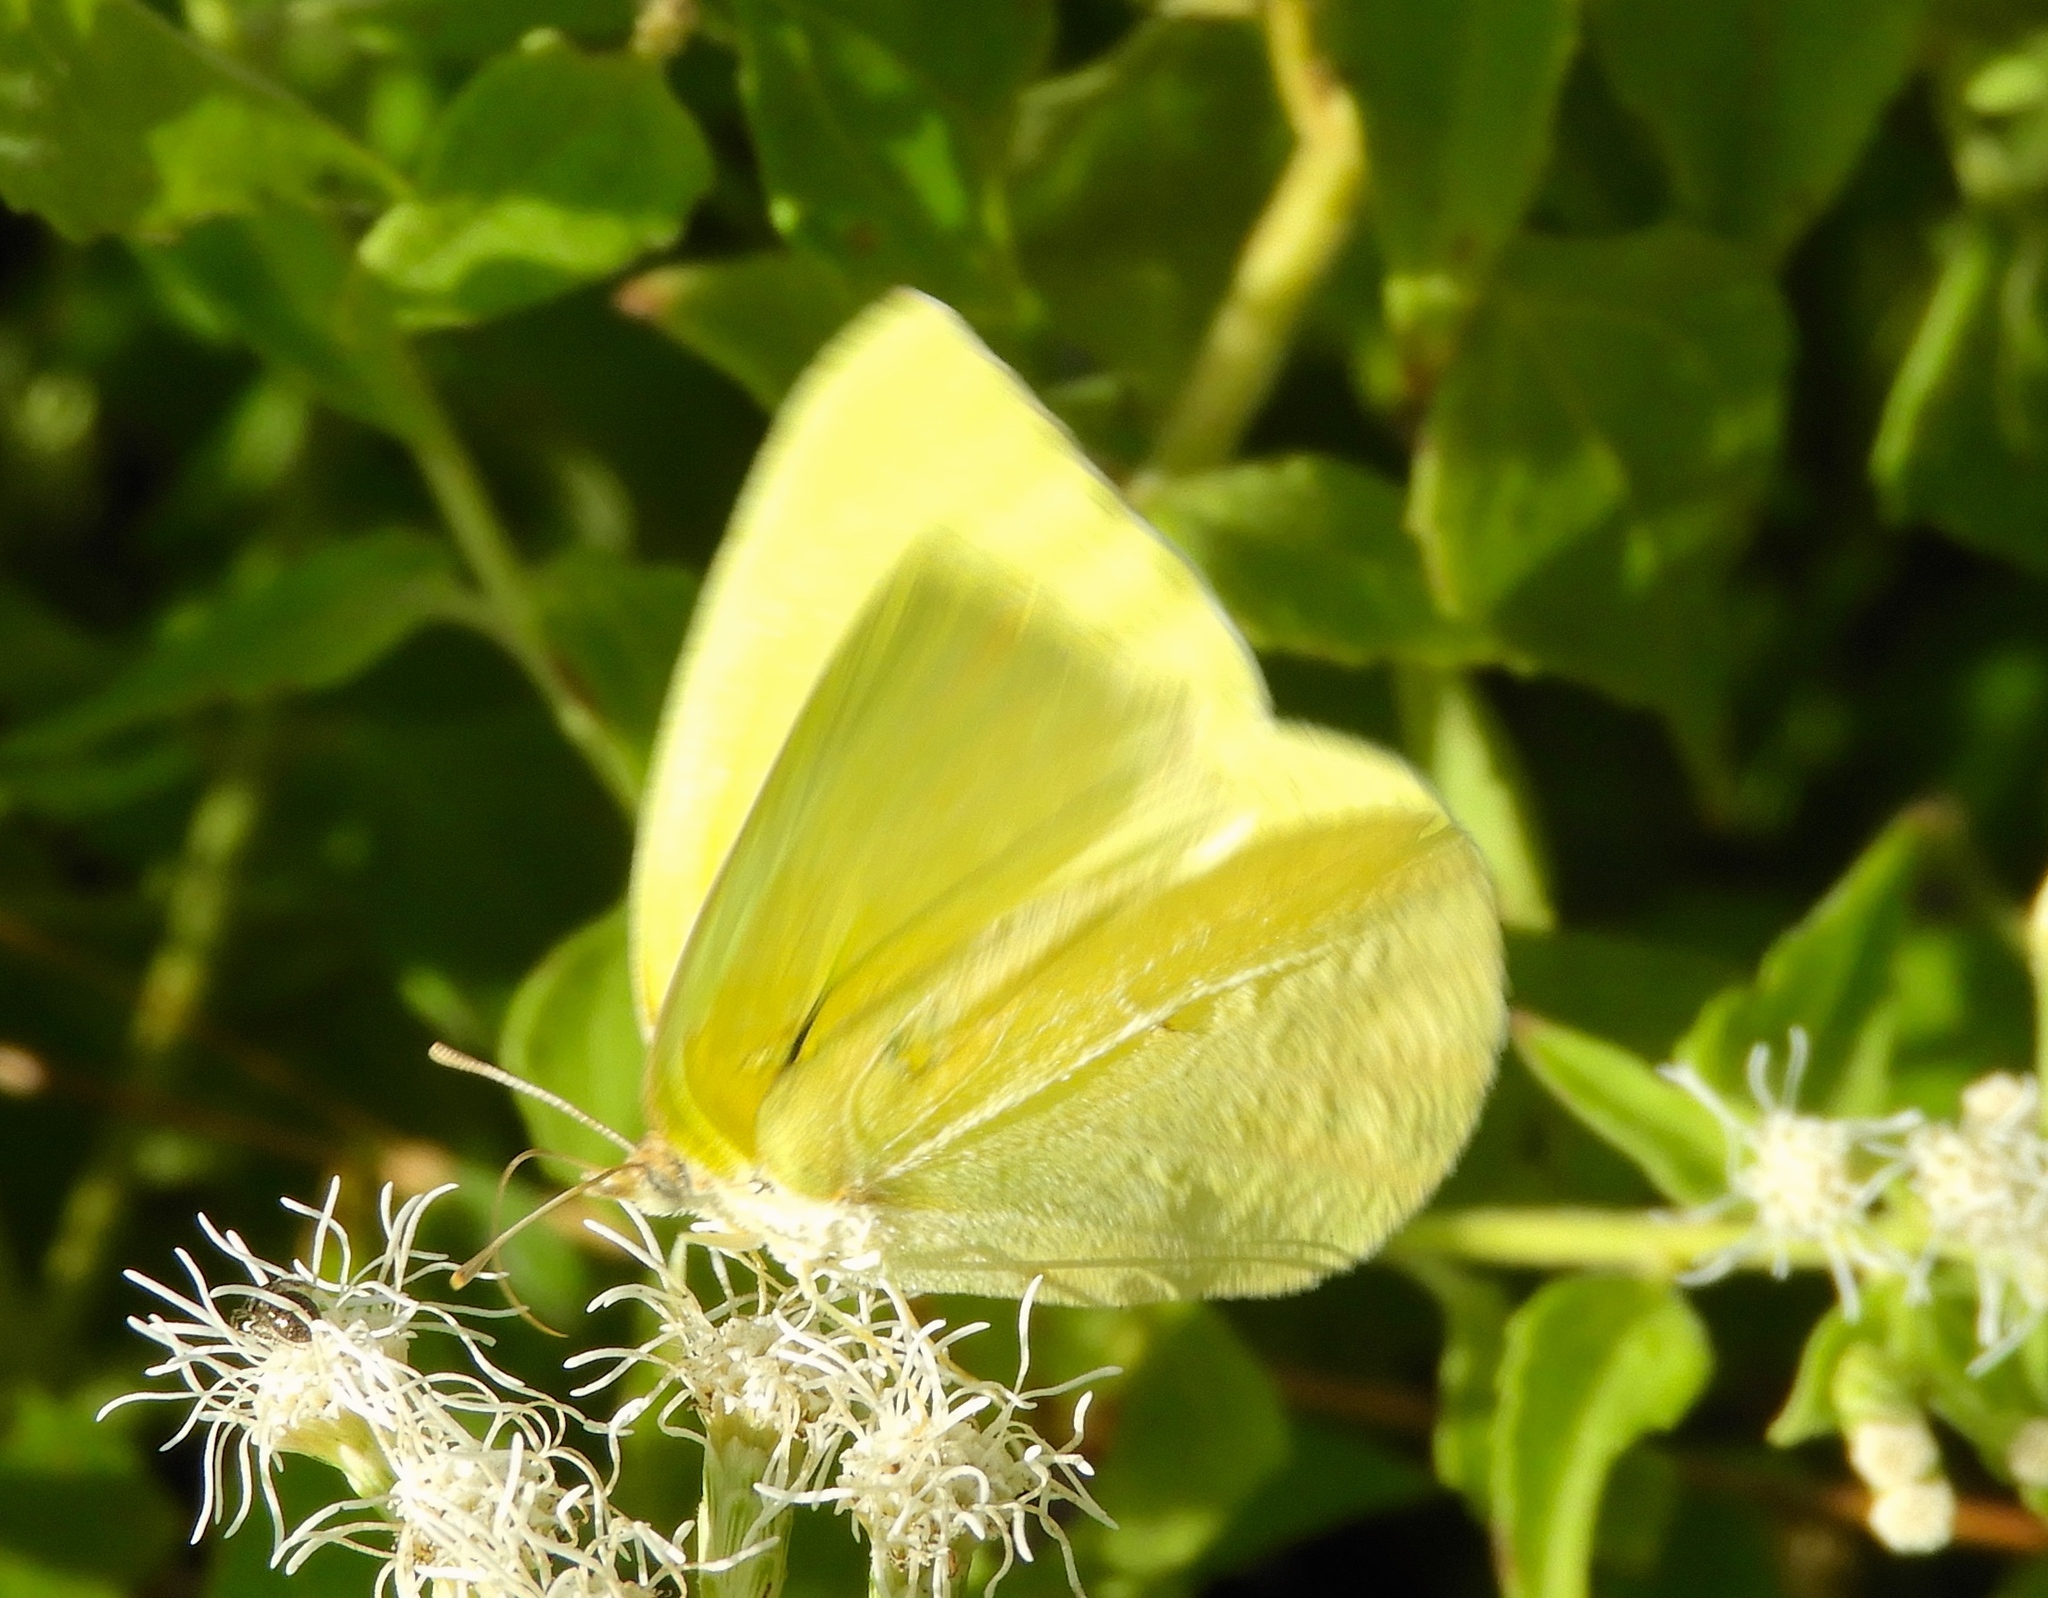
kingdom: Animalia
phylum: Arthropoda
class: Insecta
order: Lepidoptera
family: Pieridae
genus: Kricogonia
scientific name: Kricogonia lyside
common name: Guayacan sulphur,
